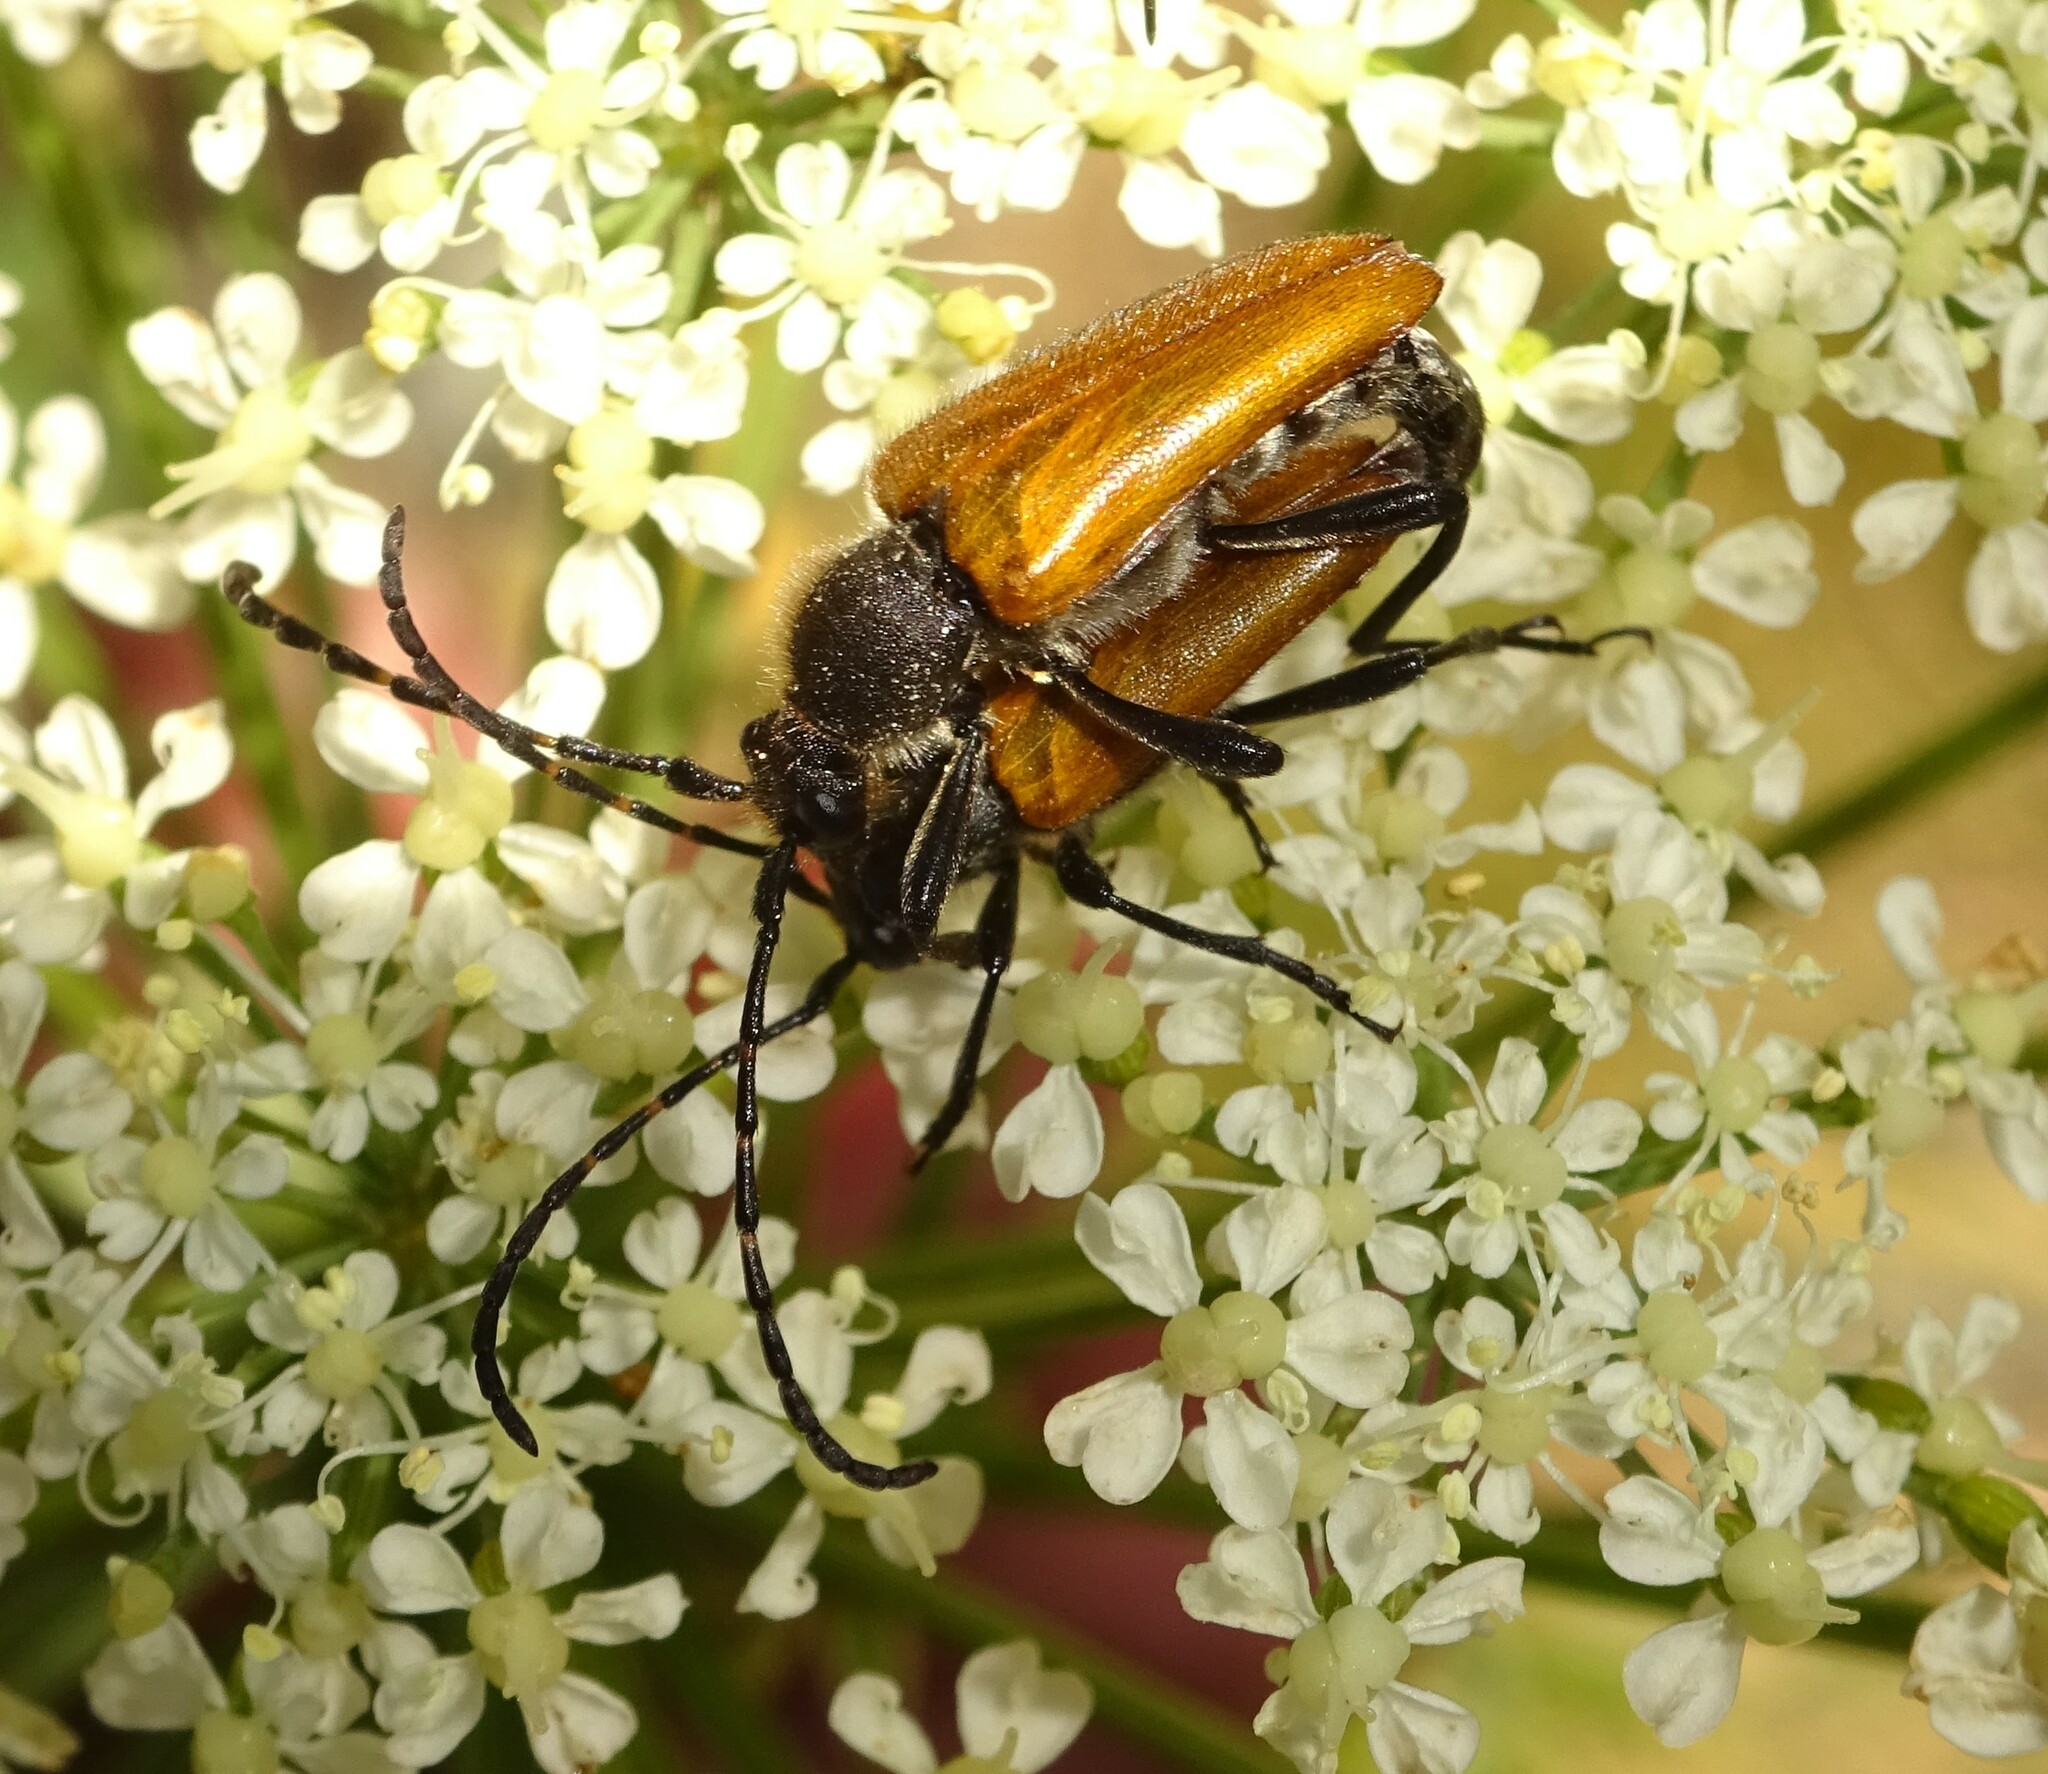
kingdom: Animalia
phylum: Arthropoda
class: Insecta
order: Coleoptera
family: Cerambycidae
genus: Paracorymbia
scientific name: Paracorymbia hybrida
